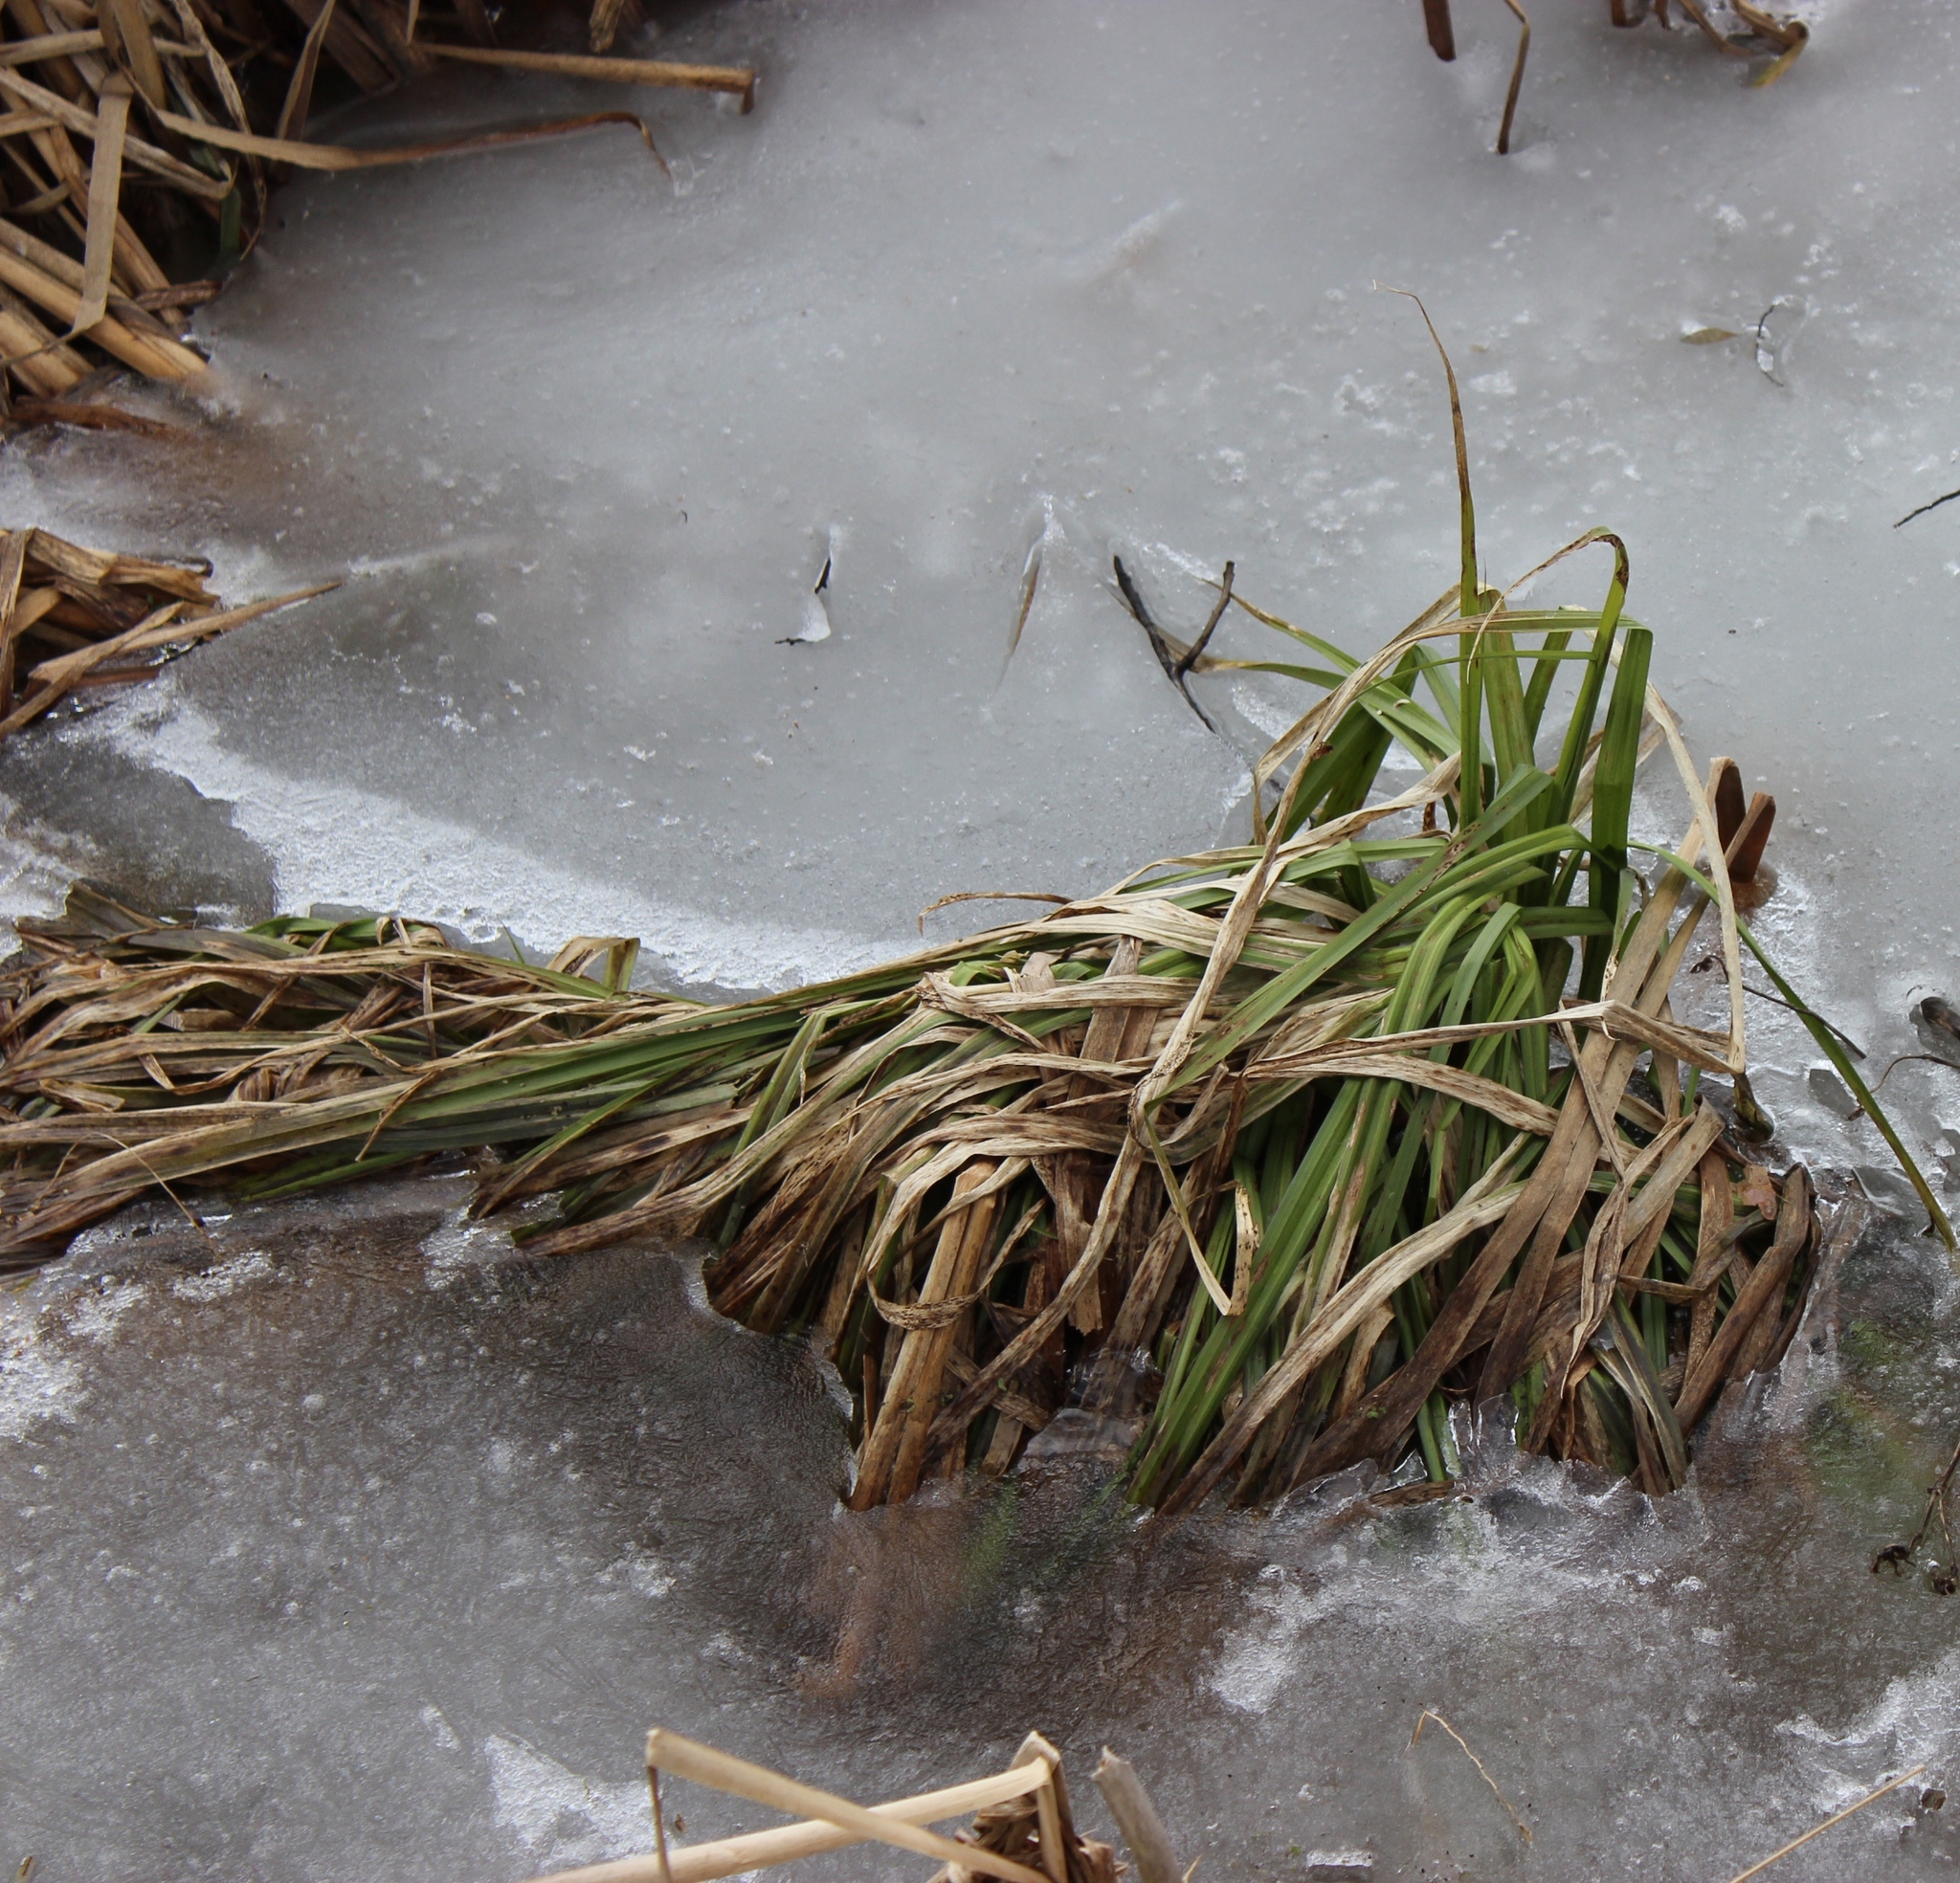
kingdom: Plantae
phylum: Tracheophyta
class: Liliopsida
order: Poales
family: Cyperaceae
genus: Scirpus
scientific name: Scirpus sylvaticus
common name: Wood club-rush
